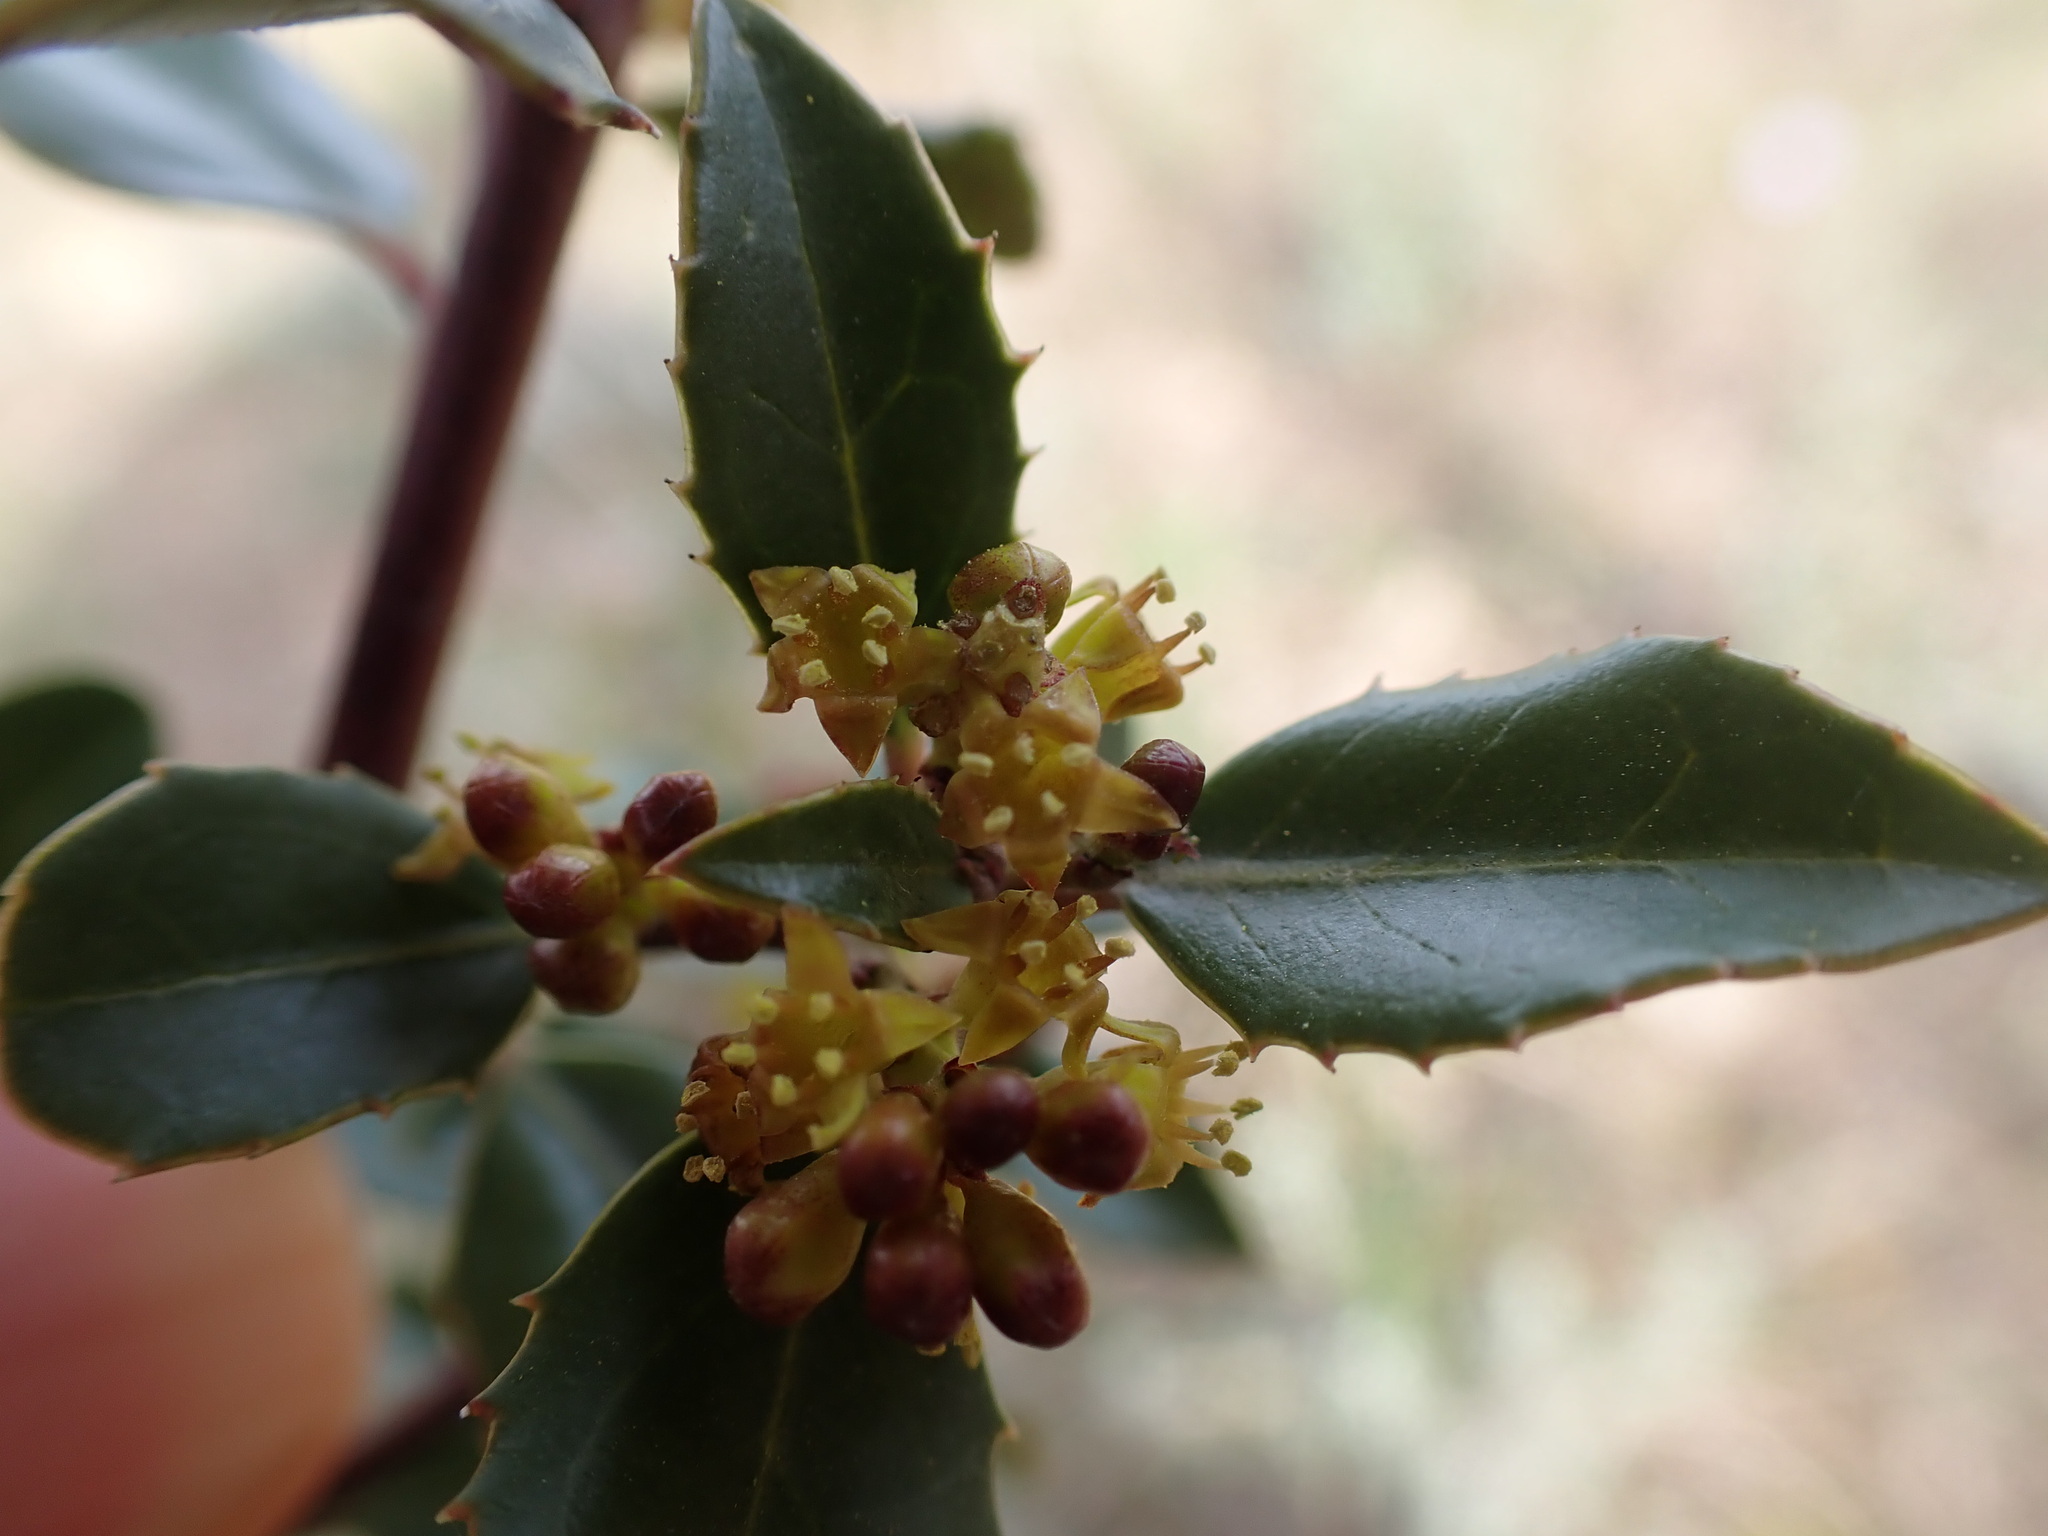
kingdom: Plantae
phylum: Tracheophyta
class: Magnoliopsida
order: Rosales
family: Rhamnaceae
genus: Rhamnus
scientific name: Rhamnus alaternus
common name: Mediterranean buckthorn
